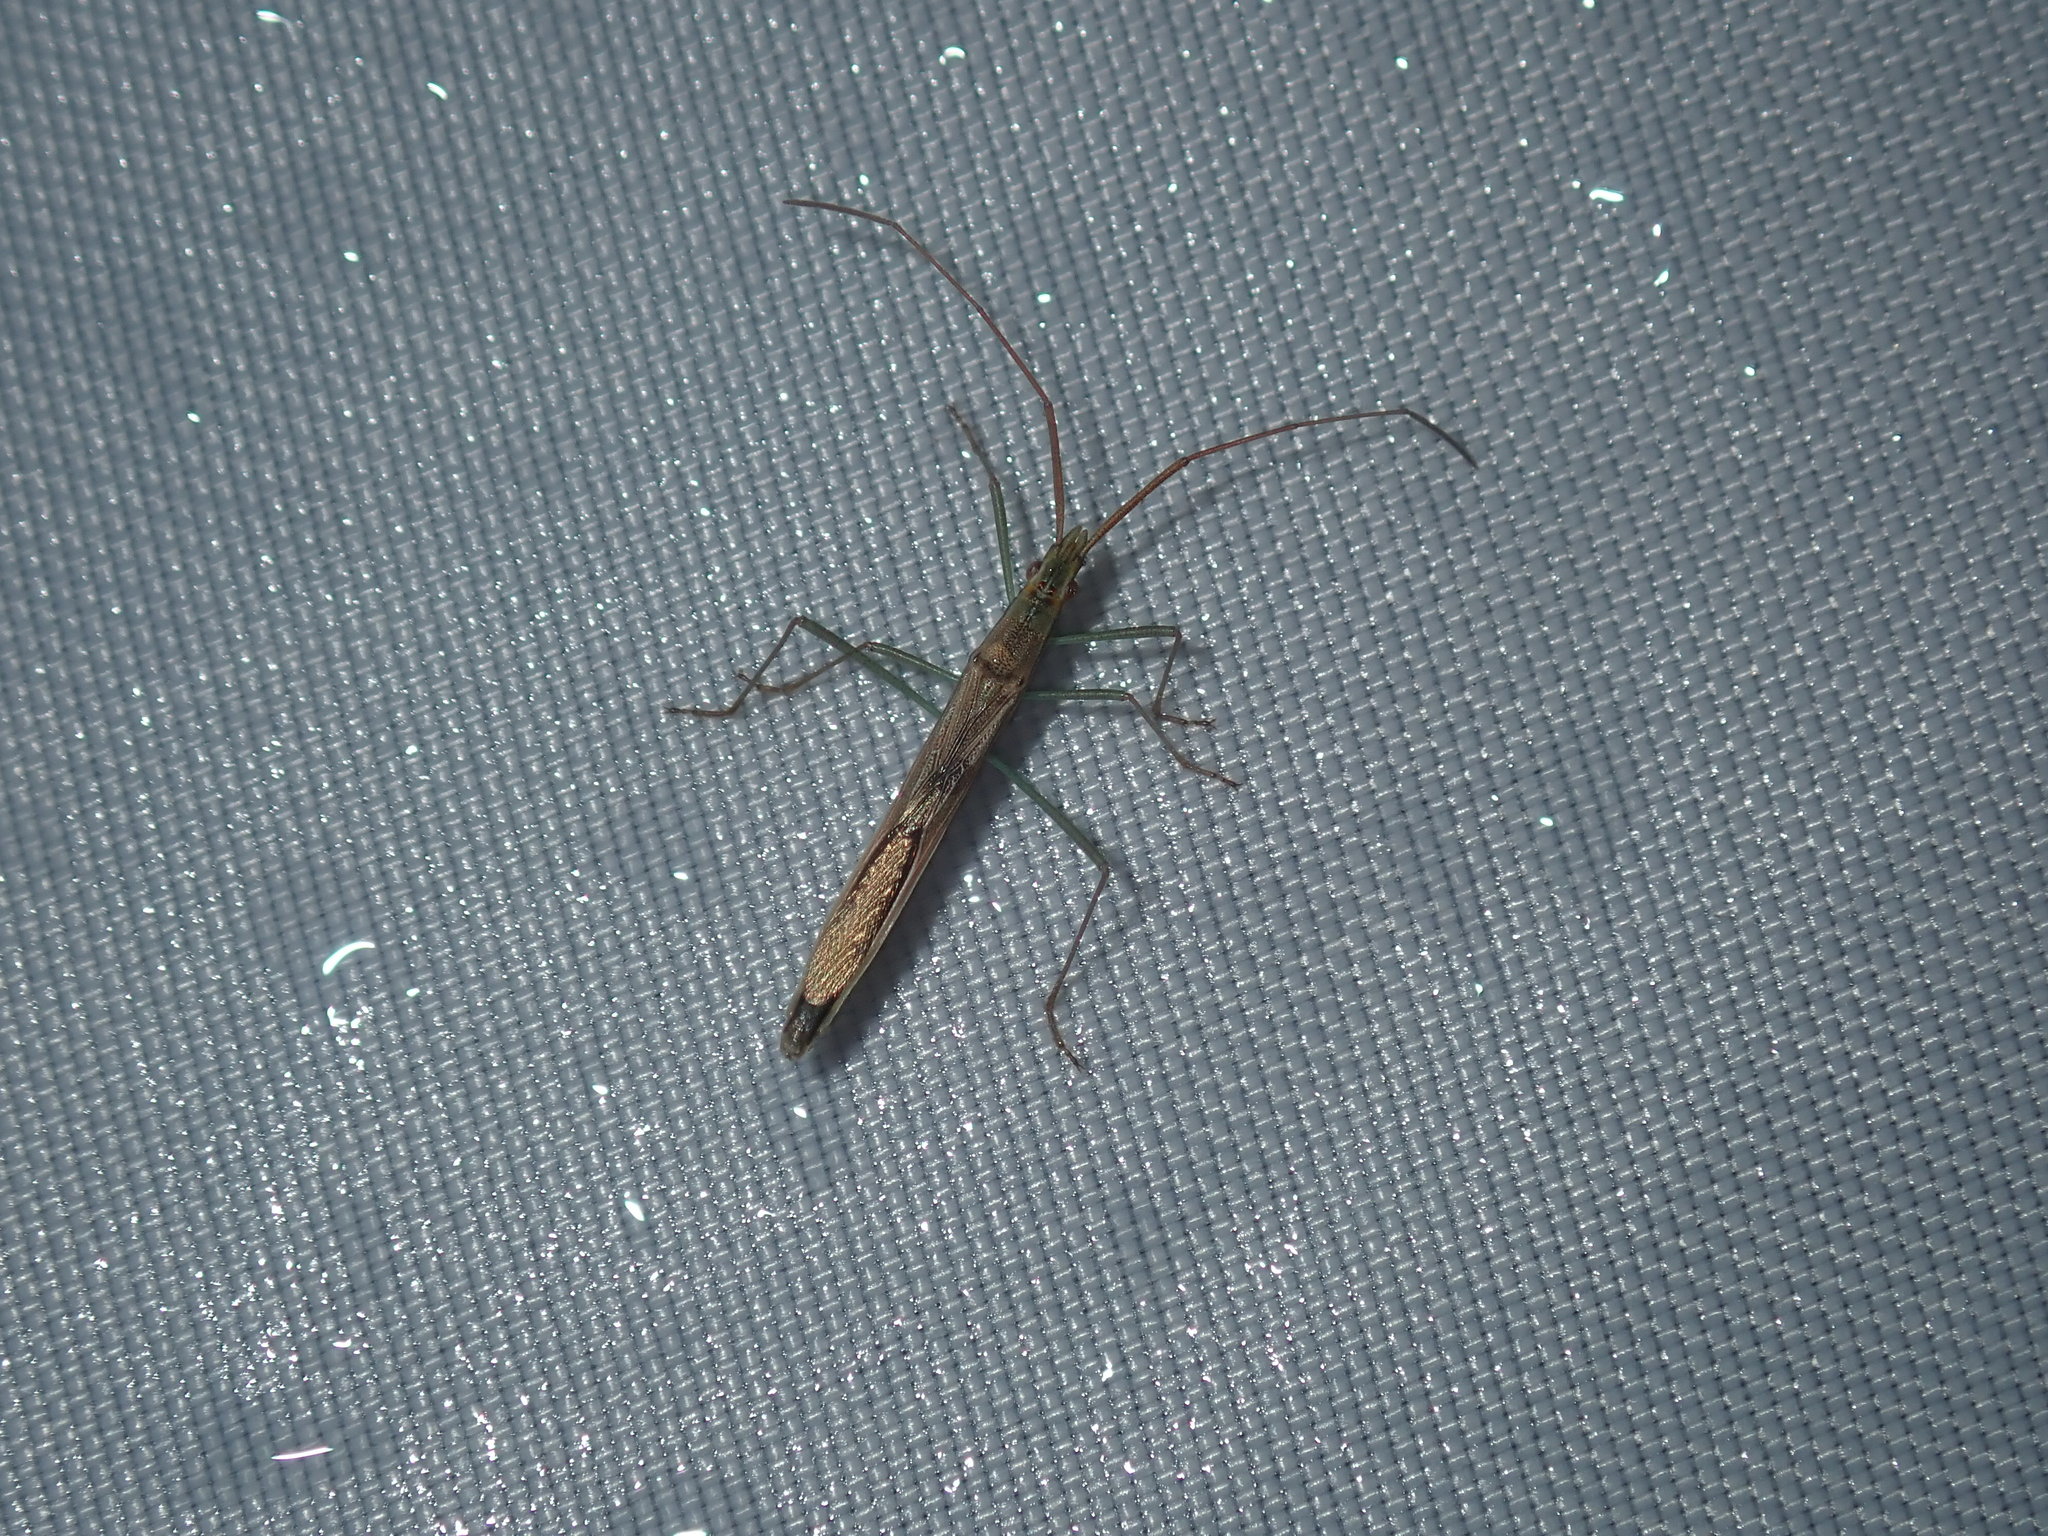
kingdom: Animalia
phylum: Arthropoda
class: Insecta
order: Hemiptera
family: Alydidae
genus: Mutusca
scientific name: Mutusca brevicornis
